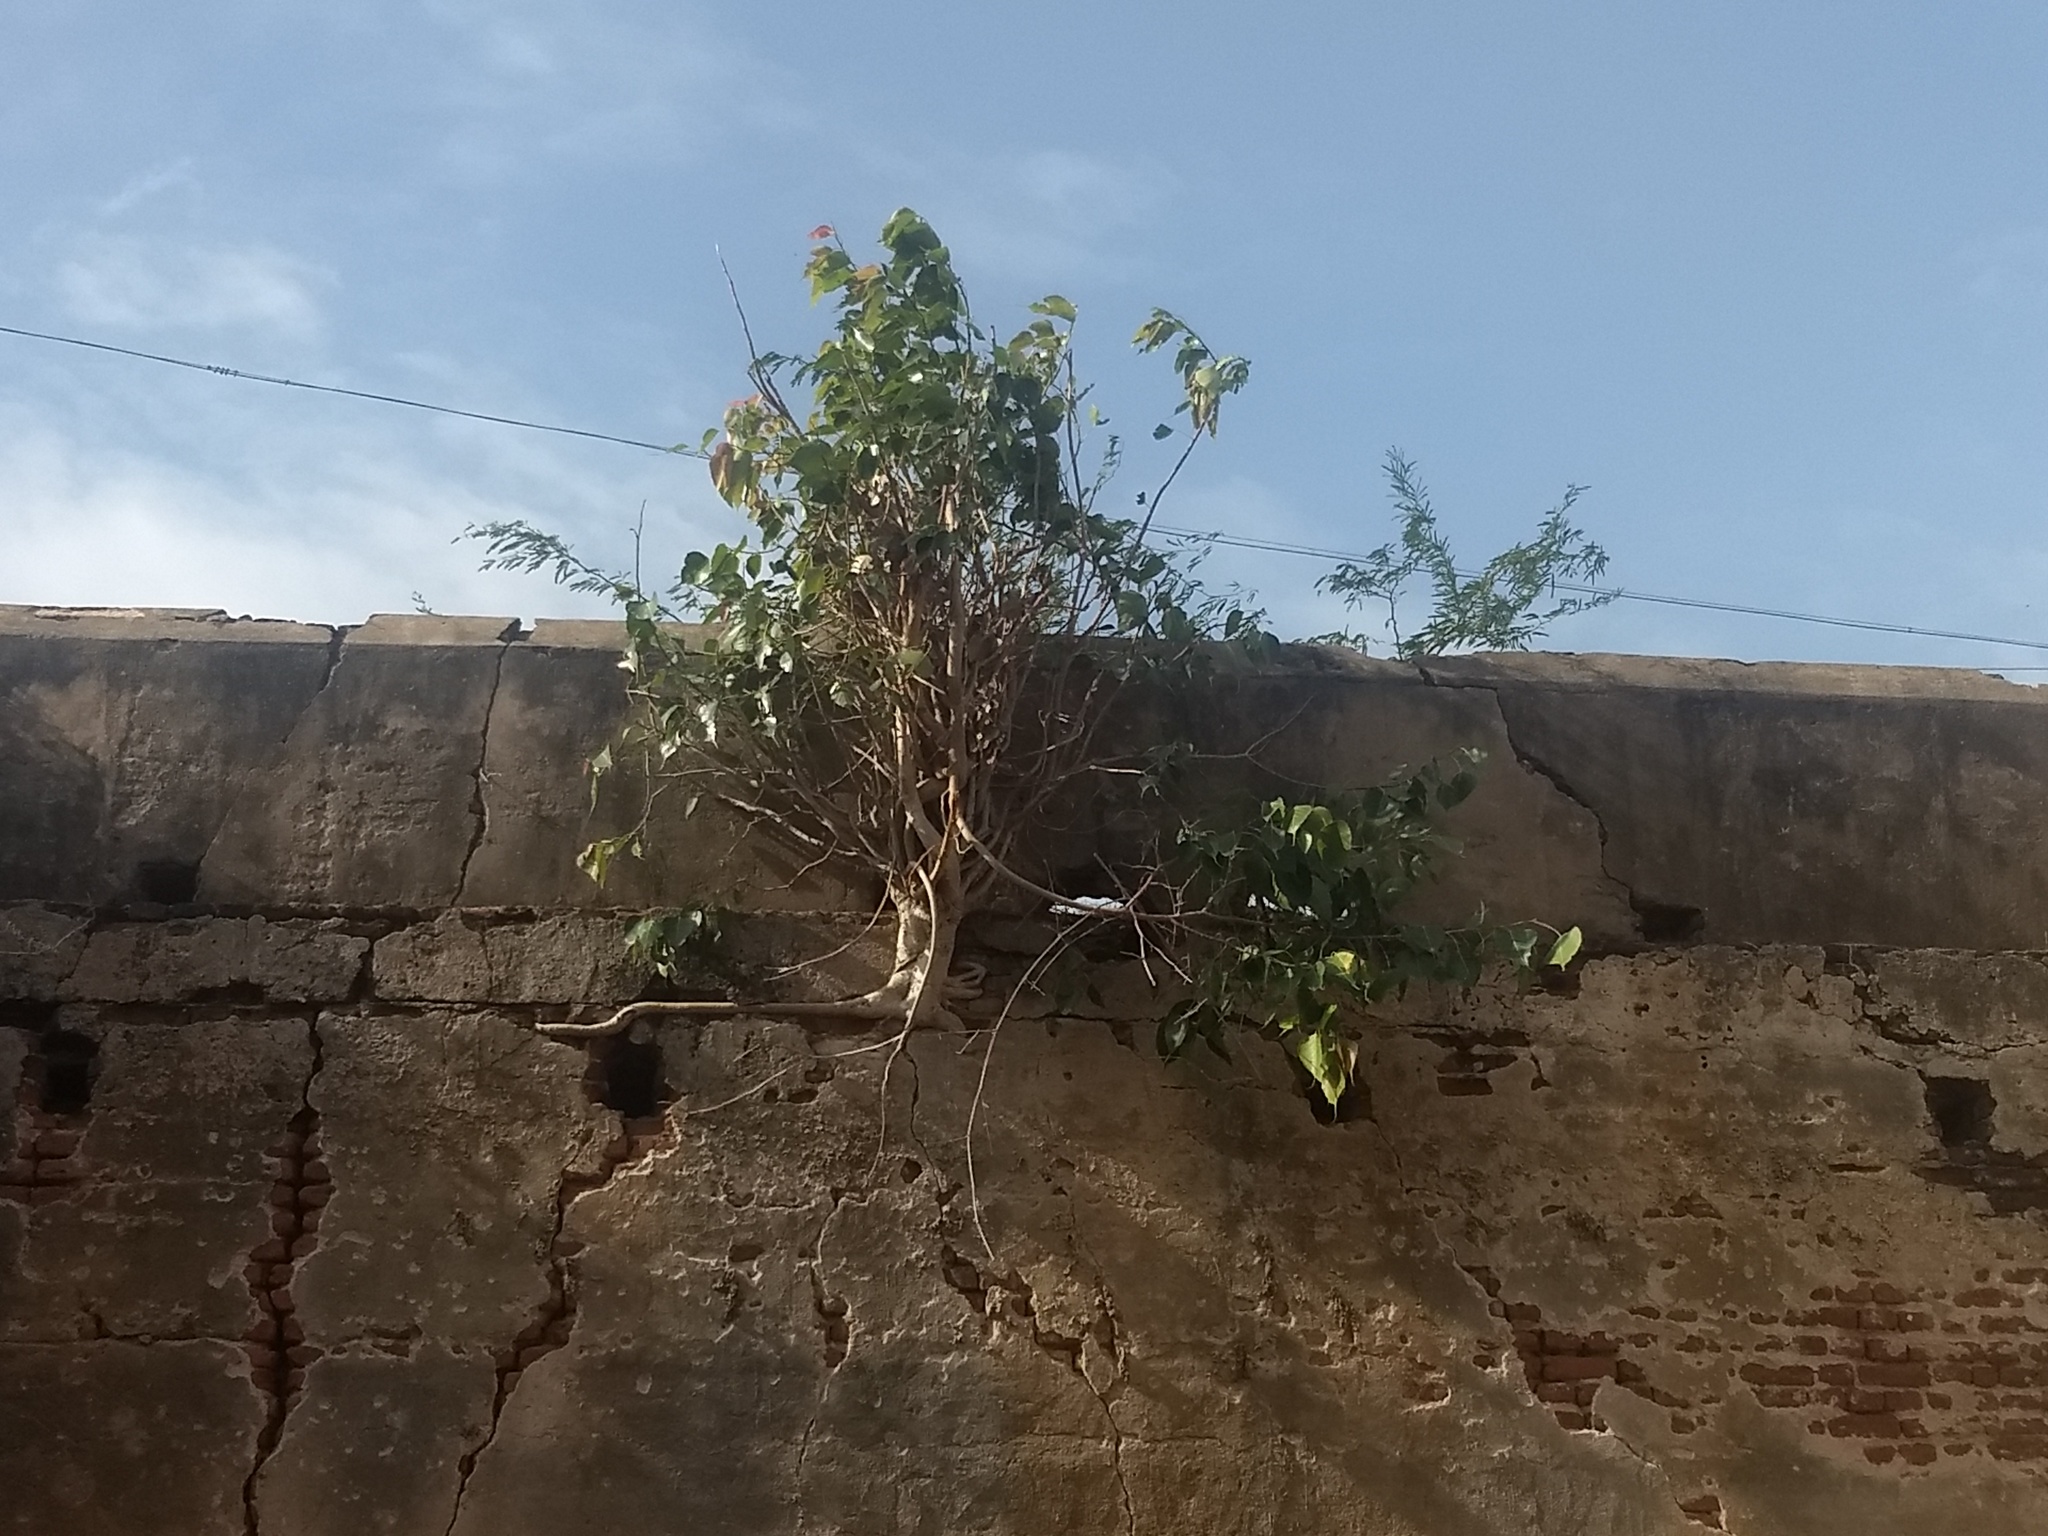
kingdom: Plantae
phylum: Tracheophyta
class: Magnoliopsida
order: Rosales
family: Moraceae
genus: Ficus
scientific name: Ficus religiosa
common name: Bodhi tree
